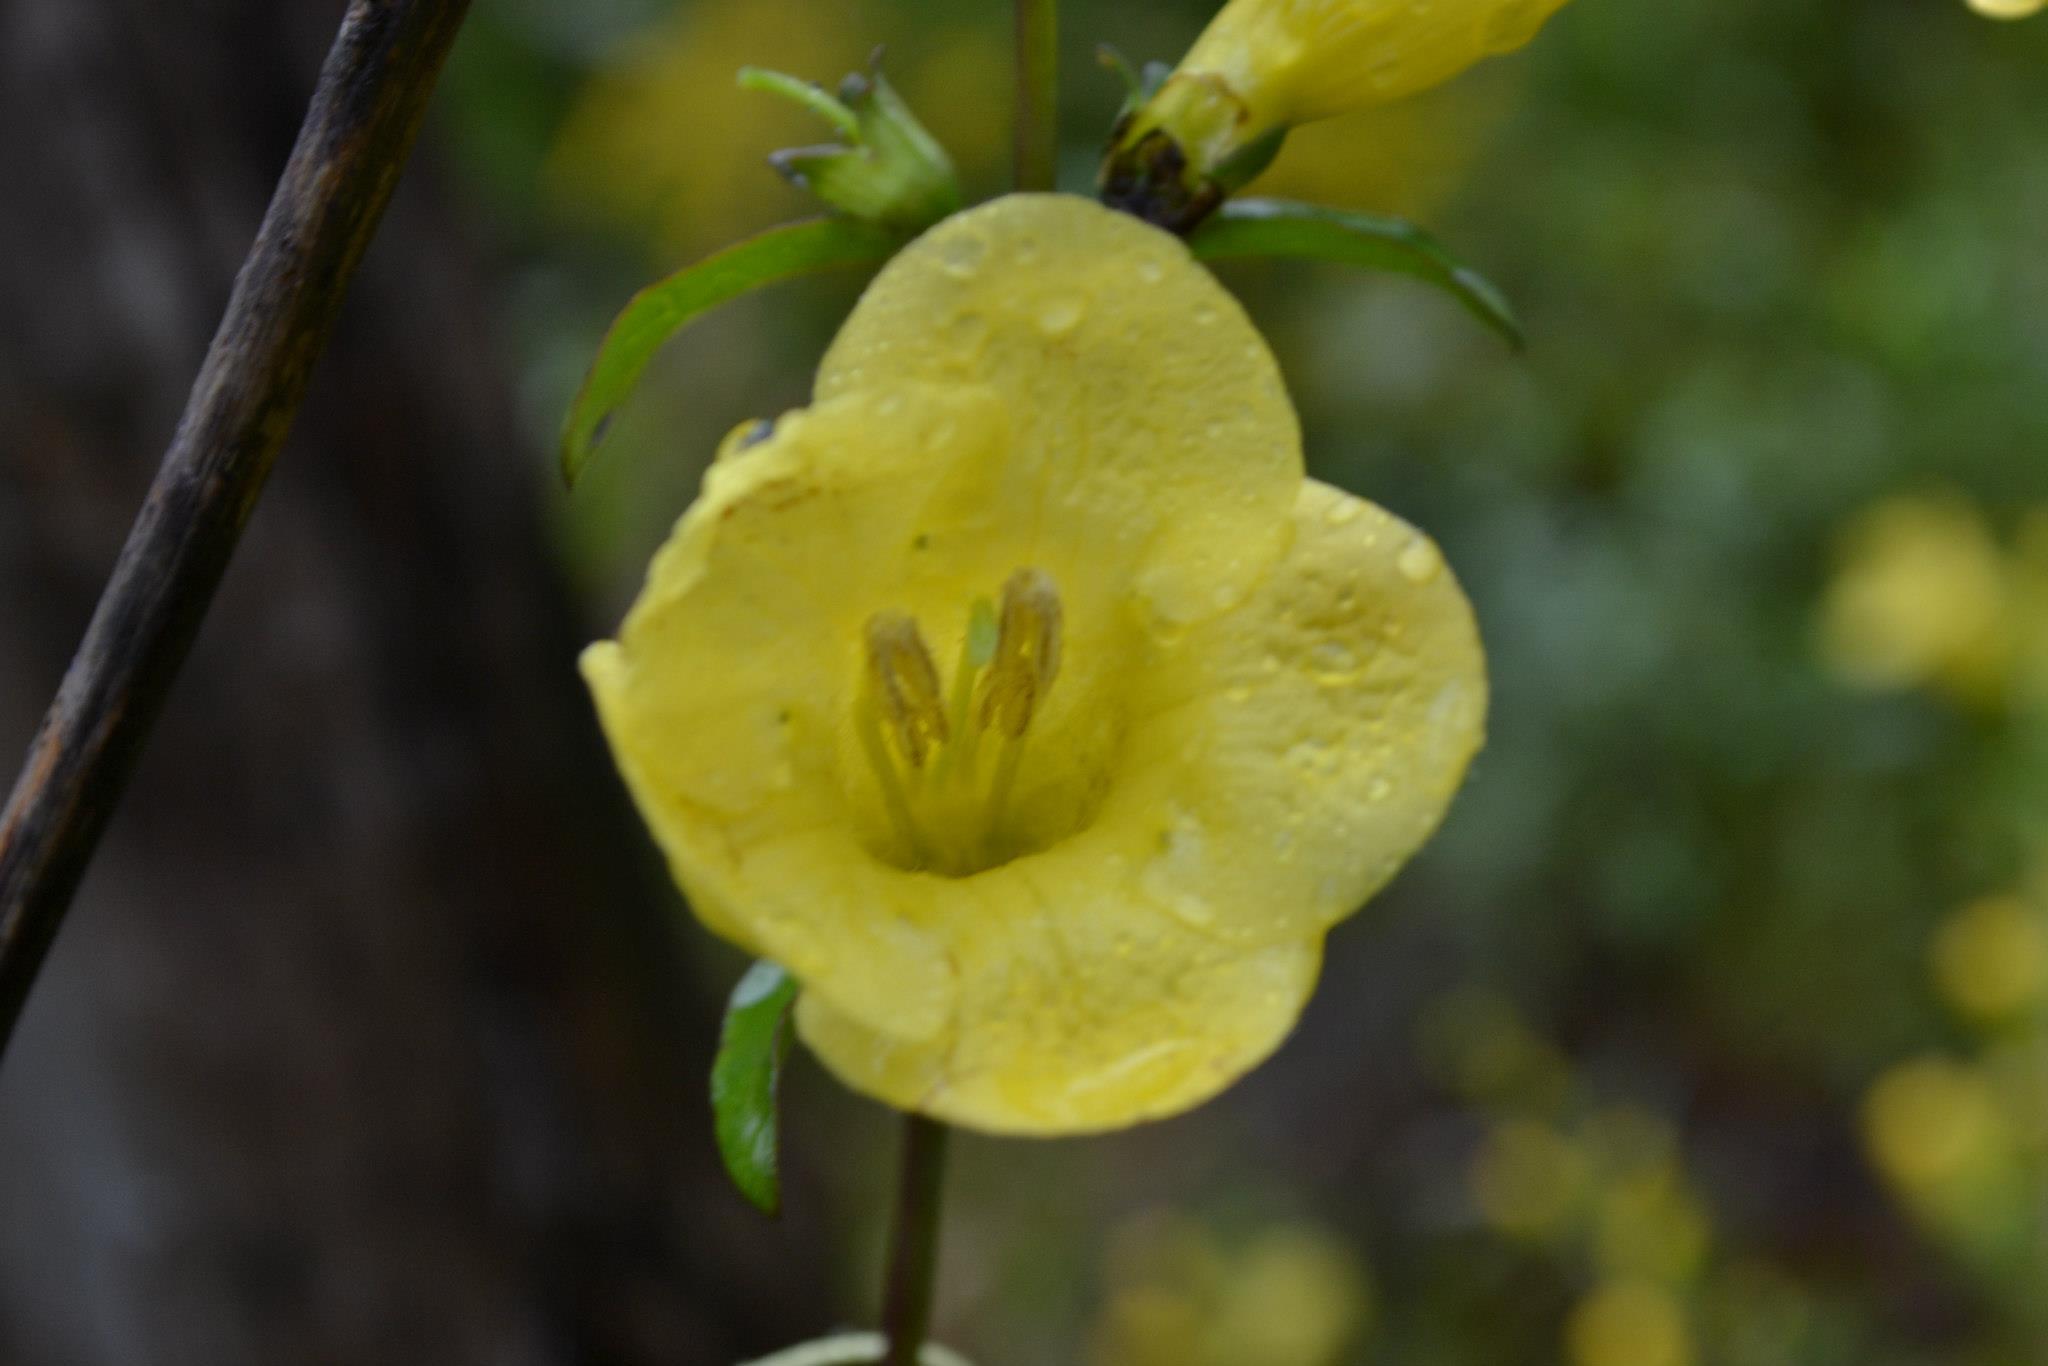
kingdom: Plantae
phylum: Tracheophyta
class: Magnoliopsida
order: Lamiales
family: Orobanchaceae
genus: Aureolaria
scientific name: Aureolaria flava
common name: Smooth false foxglove
